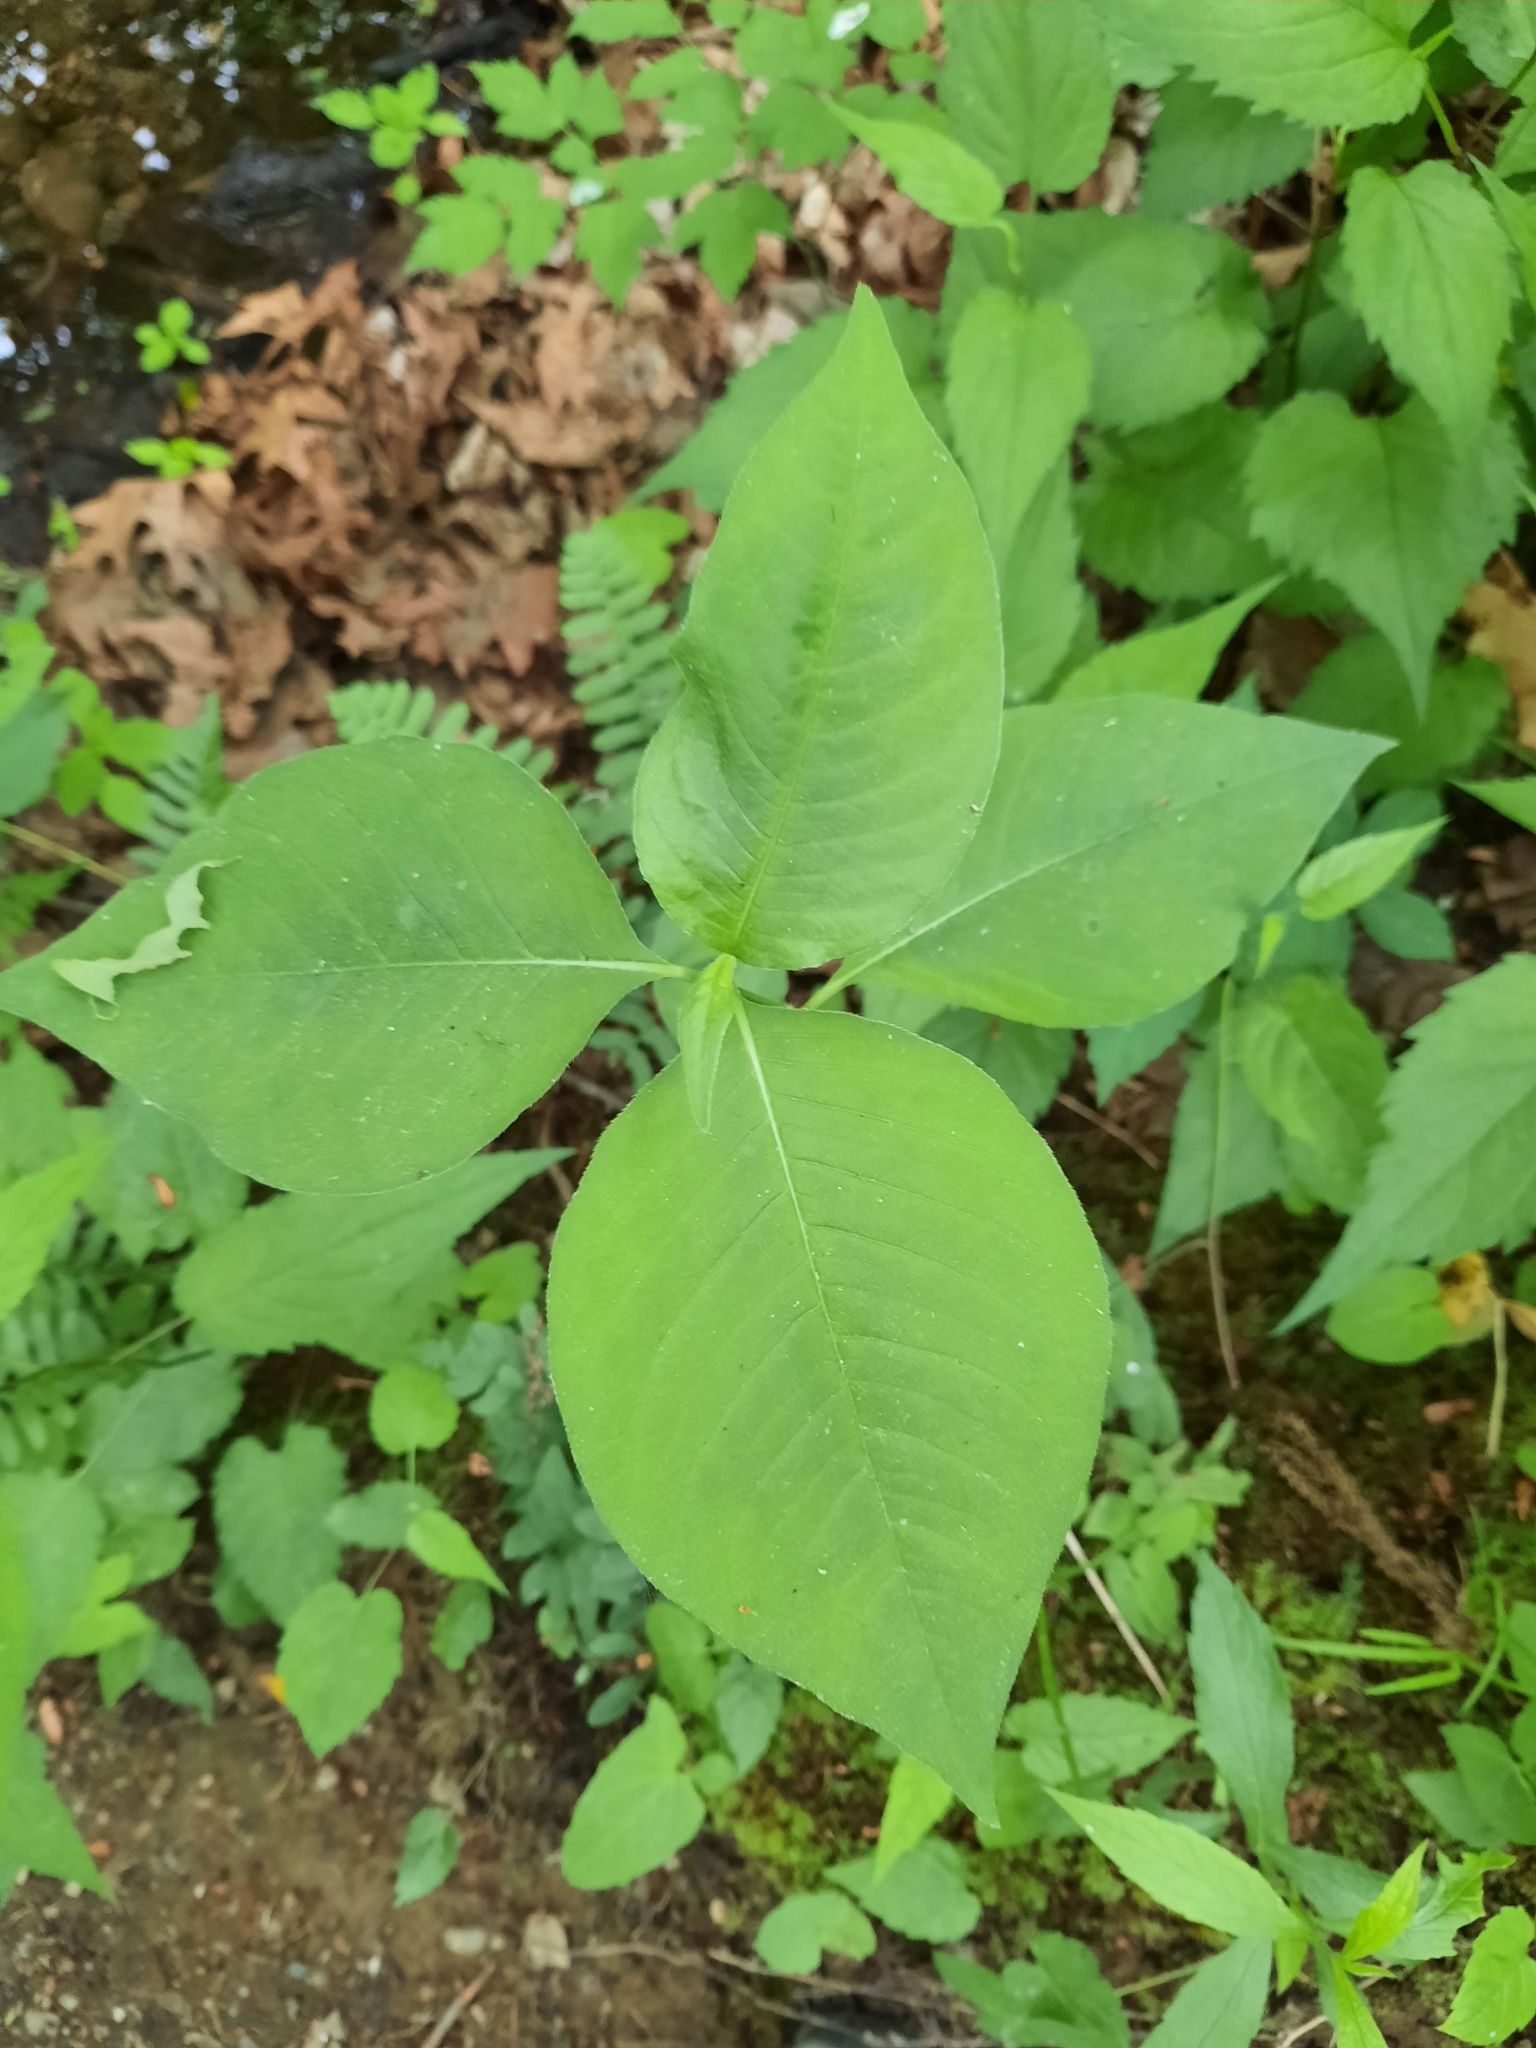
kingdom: Plantae
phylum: Tracheophyta
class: Magnoliopsida
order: Caryophyllales
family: Polygonaceae
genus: Persicaria
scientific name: Persicaria virginiana
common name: Jumpseed
